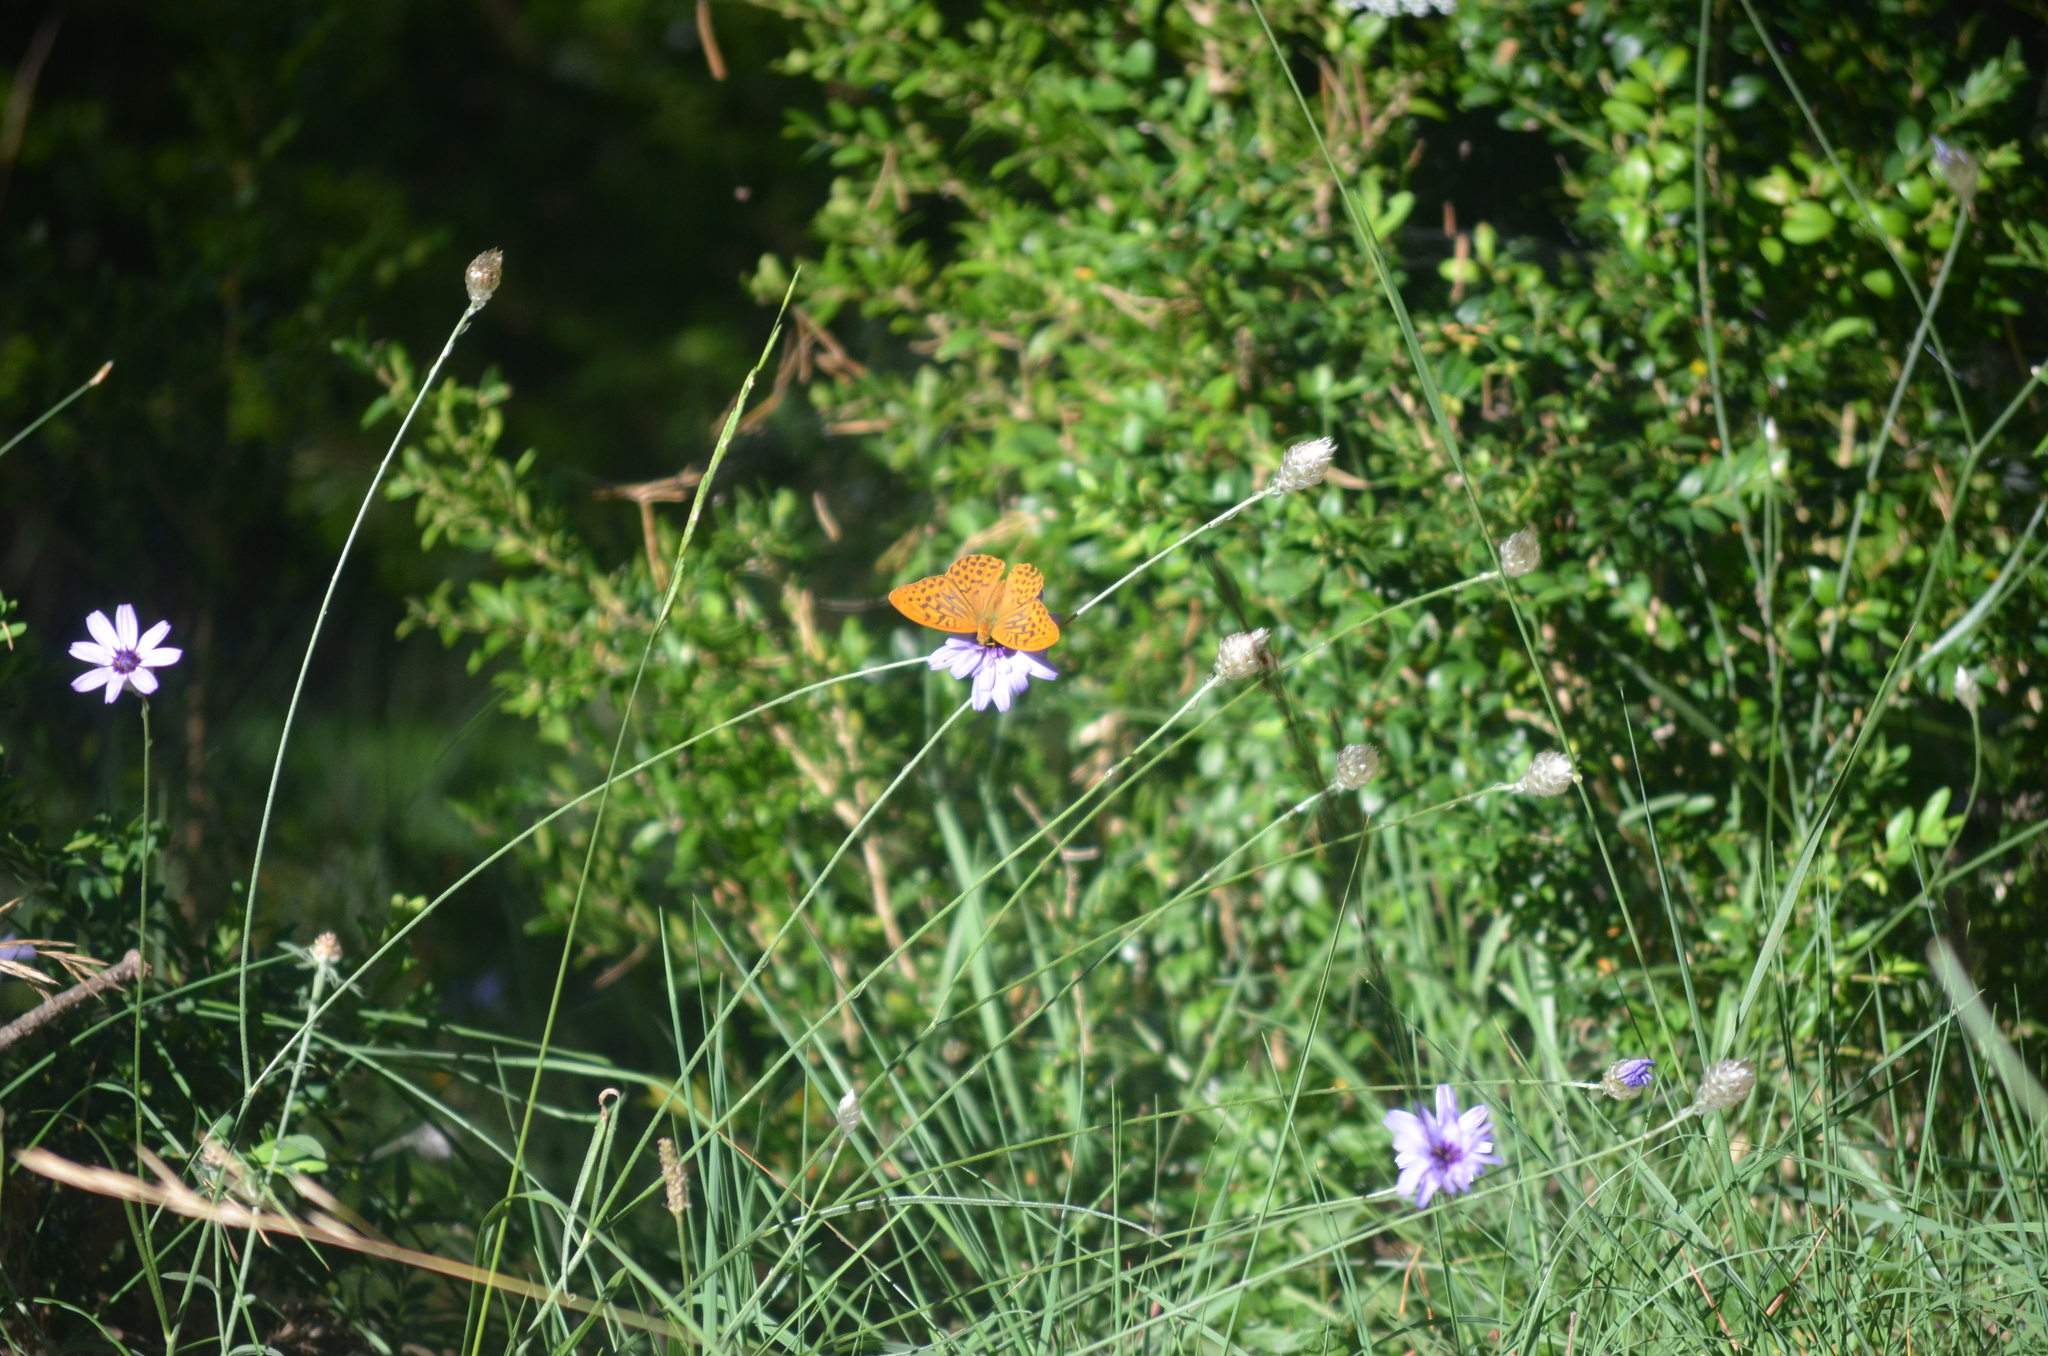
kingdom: Animalia
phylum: Arthropoda
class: Insecta
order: Lepidoptera
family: Nymphalidae
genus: Argynnis
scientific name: Argynnis paphia
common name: Silver-washed fritillary
